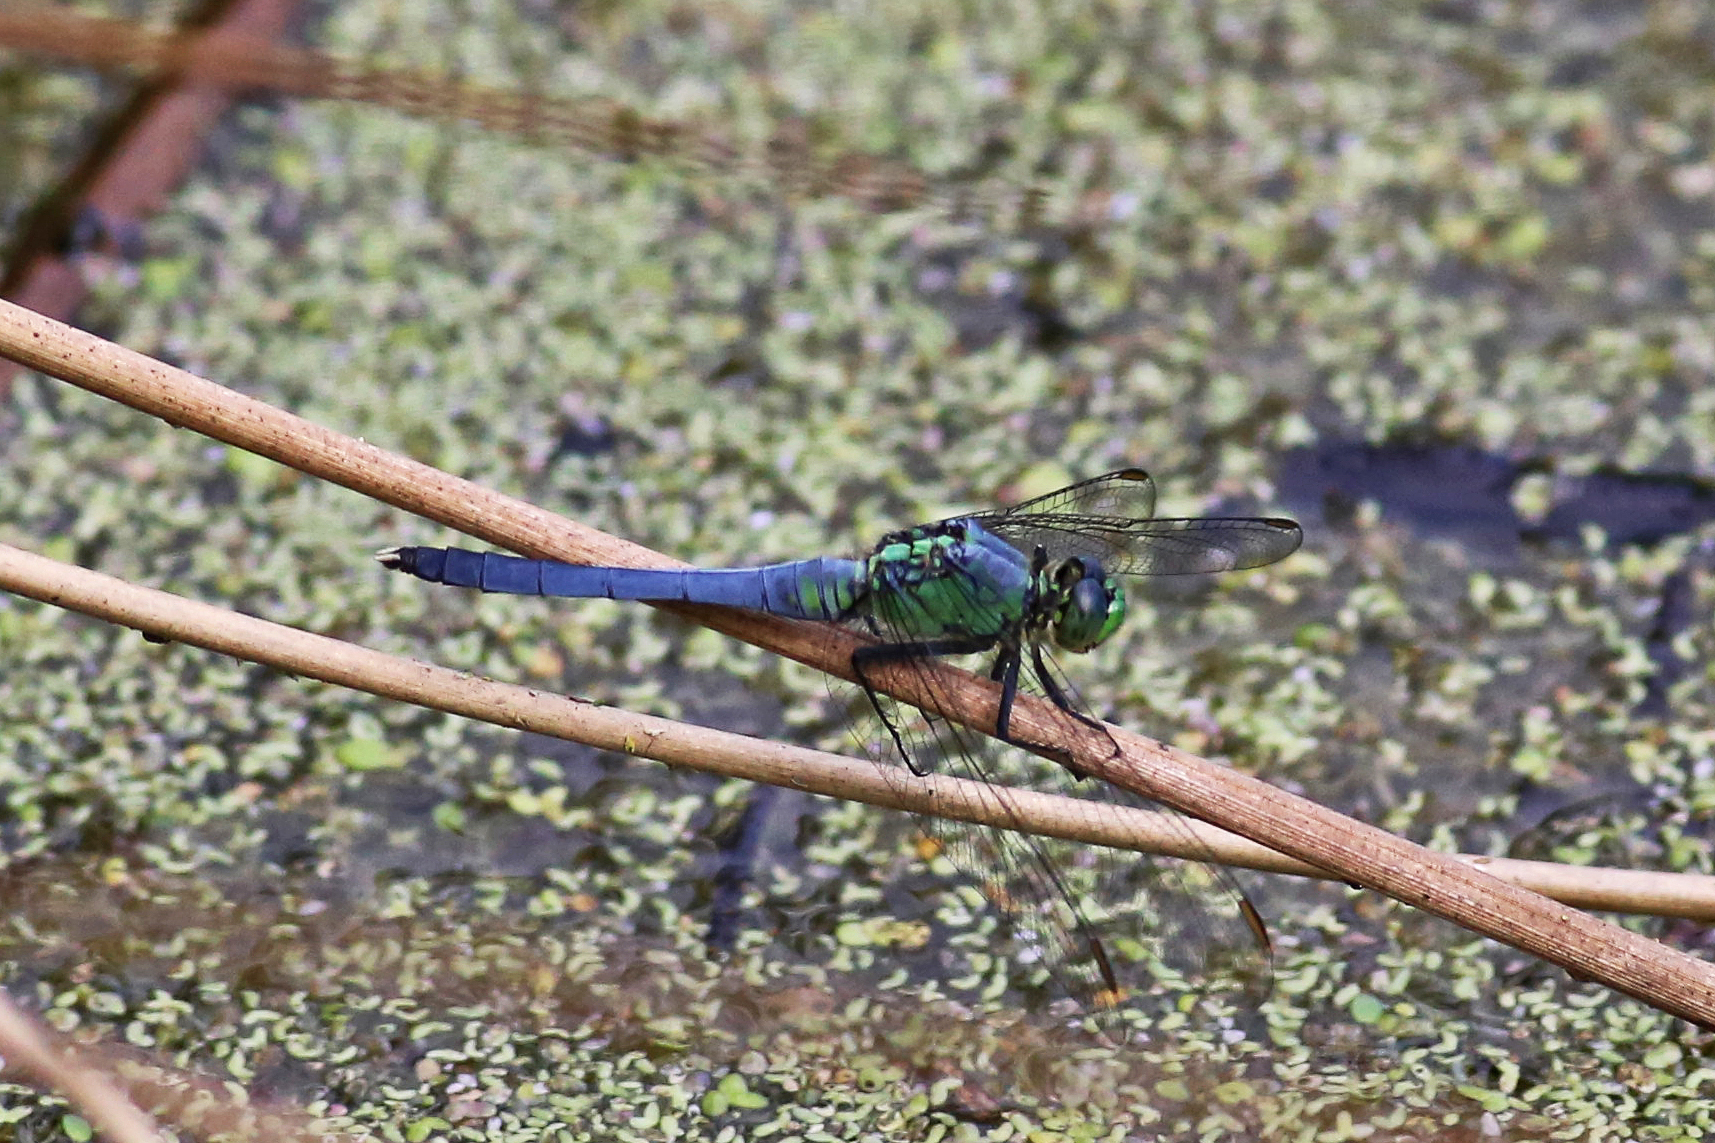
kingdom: Animalia
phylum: Arthropoda
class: Insecta
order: Odonata
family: Libellulidae
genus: Erythemis
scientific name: Erythemis simplicicollis
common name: Eastern pondhawk
